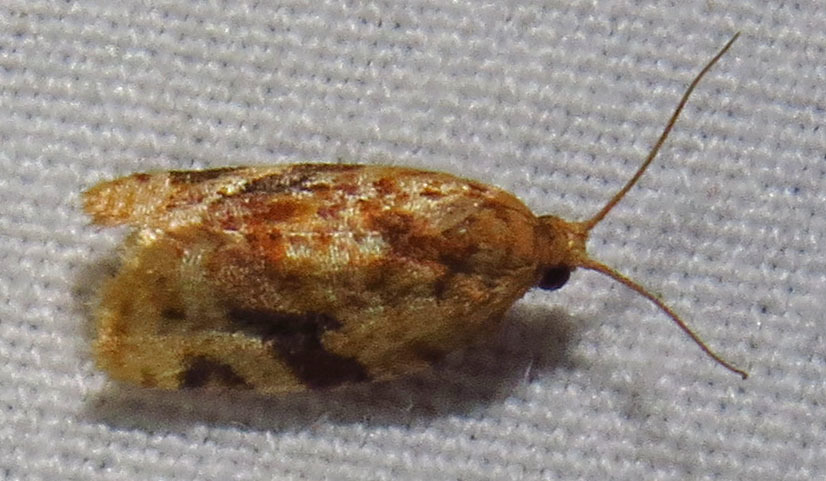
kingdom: Animalia
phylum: Arthropoda
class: Insecta
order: Lepidoptera
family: Tortricidae
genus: Argyrotaenia
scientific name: Argyrotaenia velutinana
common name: Red-banded leafroller moth
